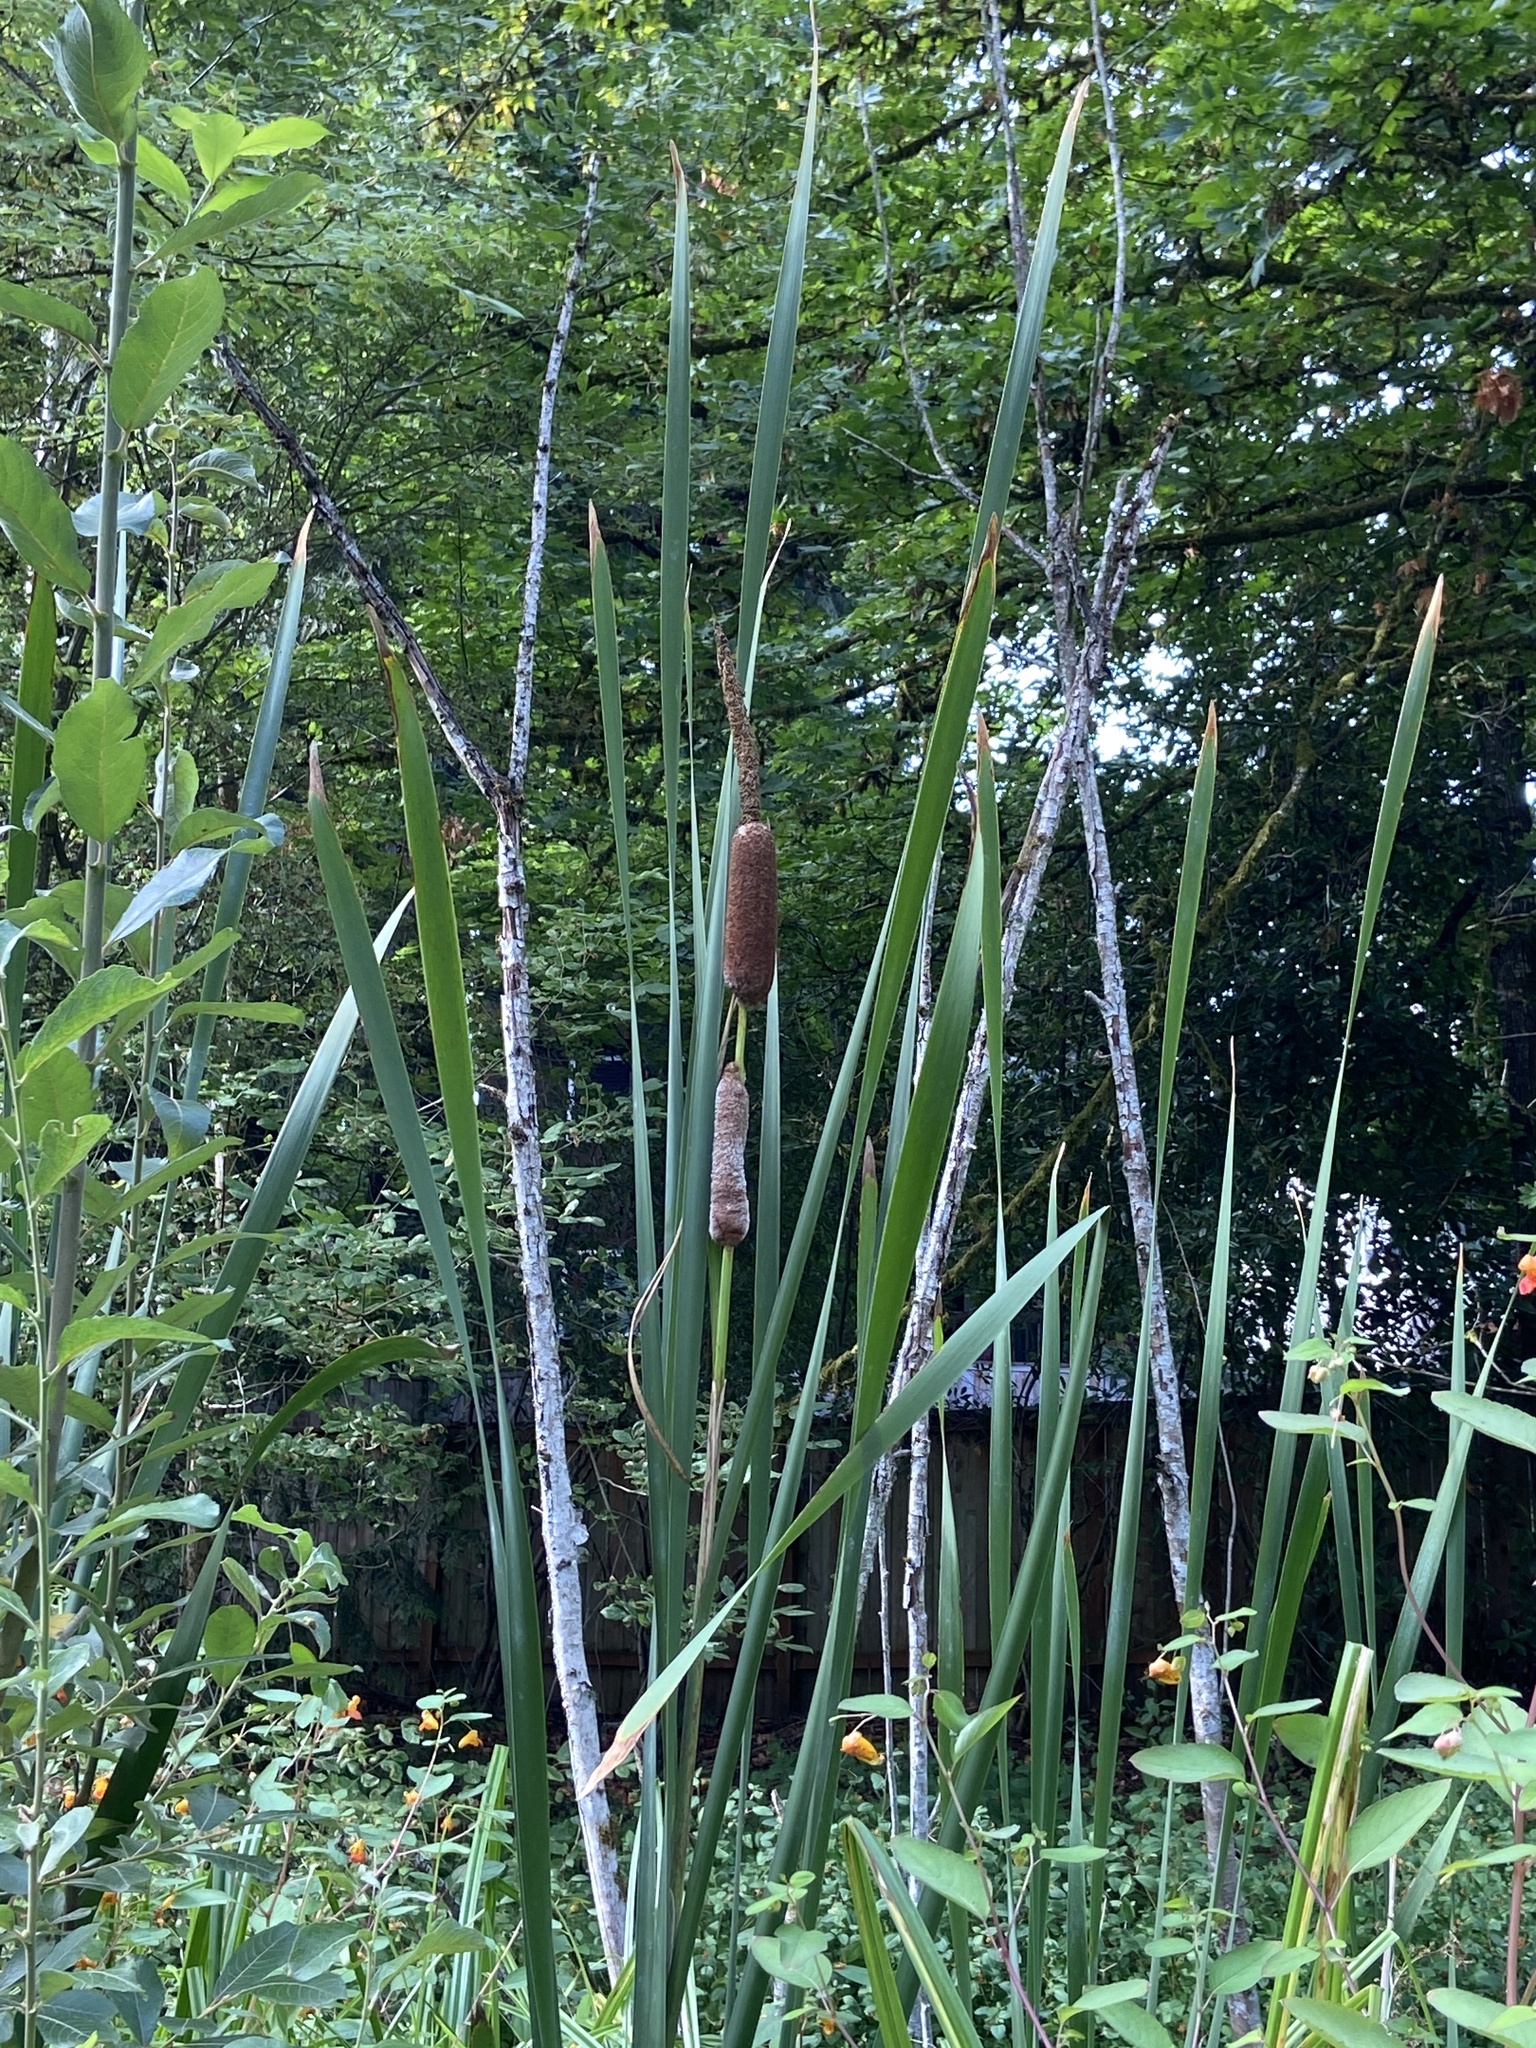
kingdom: Plantae
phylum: Tracheophyta
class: Liliopsida
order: Poales
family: Typhaceae
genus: Typha
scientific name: Typha latifolia
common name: Broadleaf cattail
